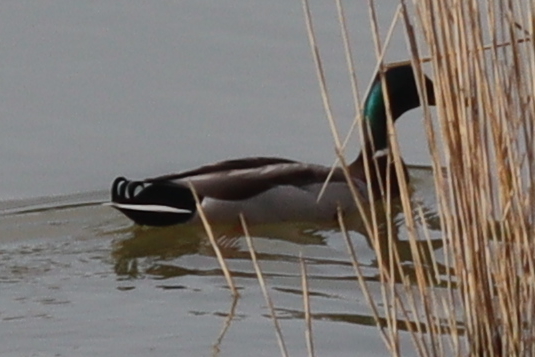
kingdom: Animalia
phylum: Chordata
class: Aves
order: Anseriformes
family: Anatidae
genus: Anas
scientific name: Anas platyrhynchos
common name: Mallard
